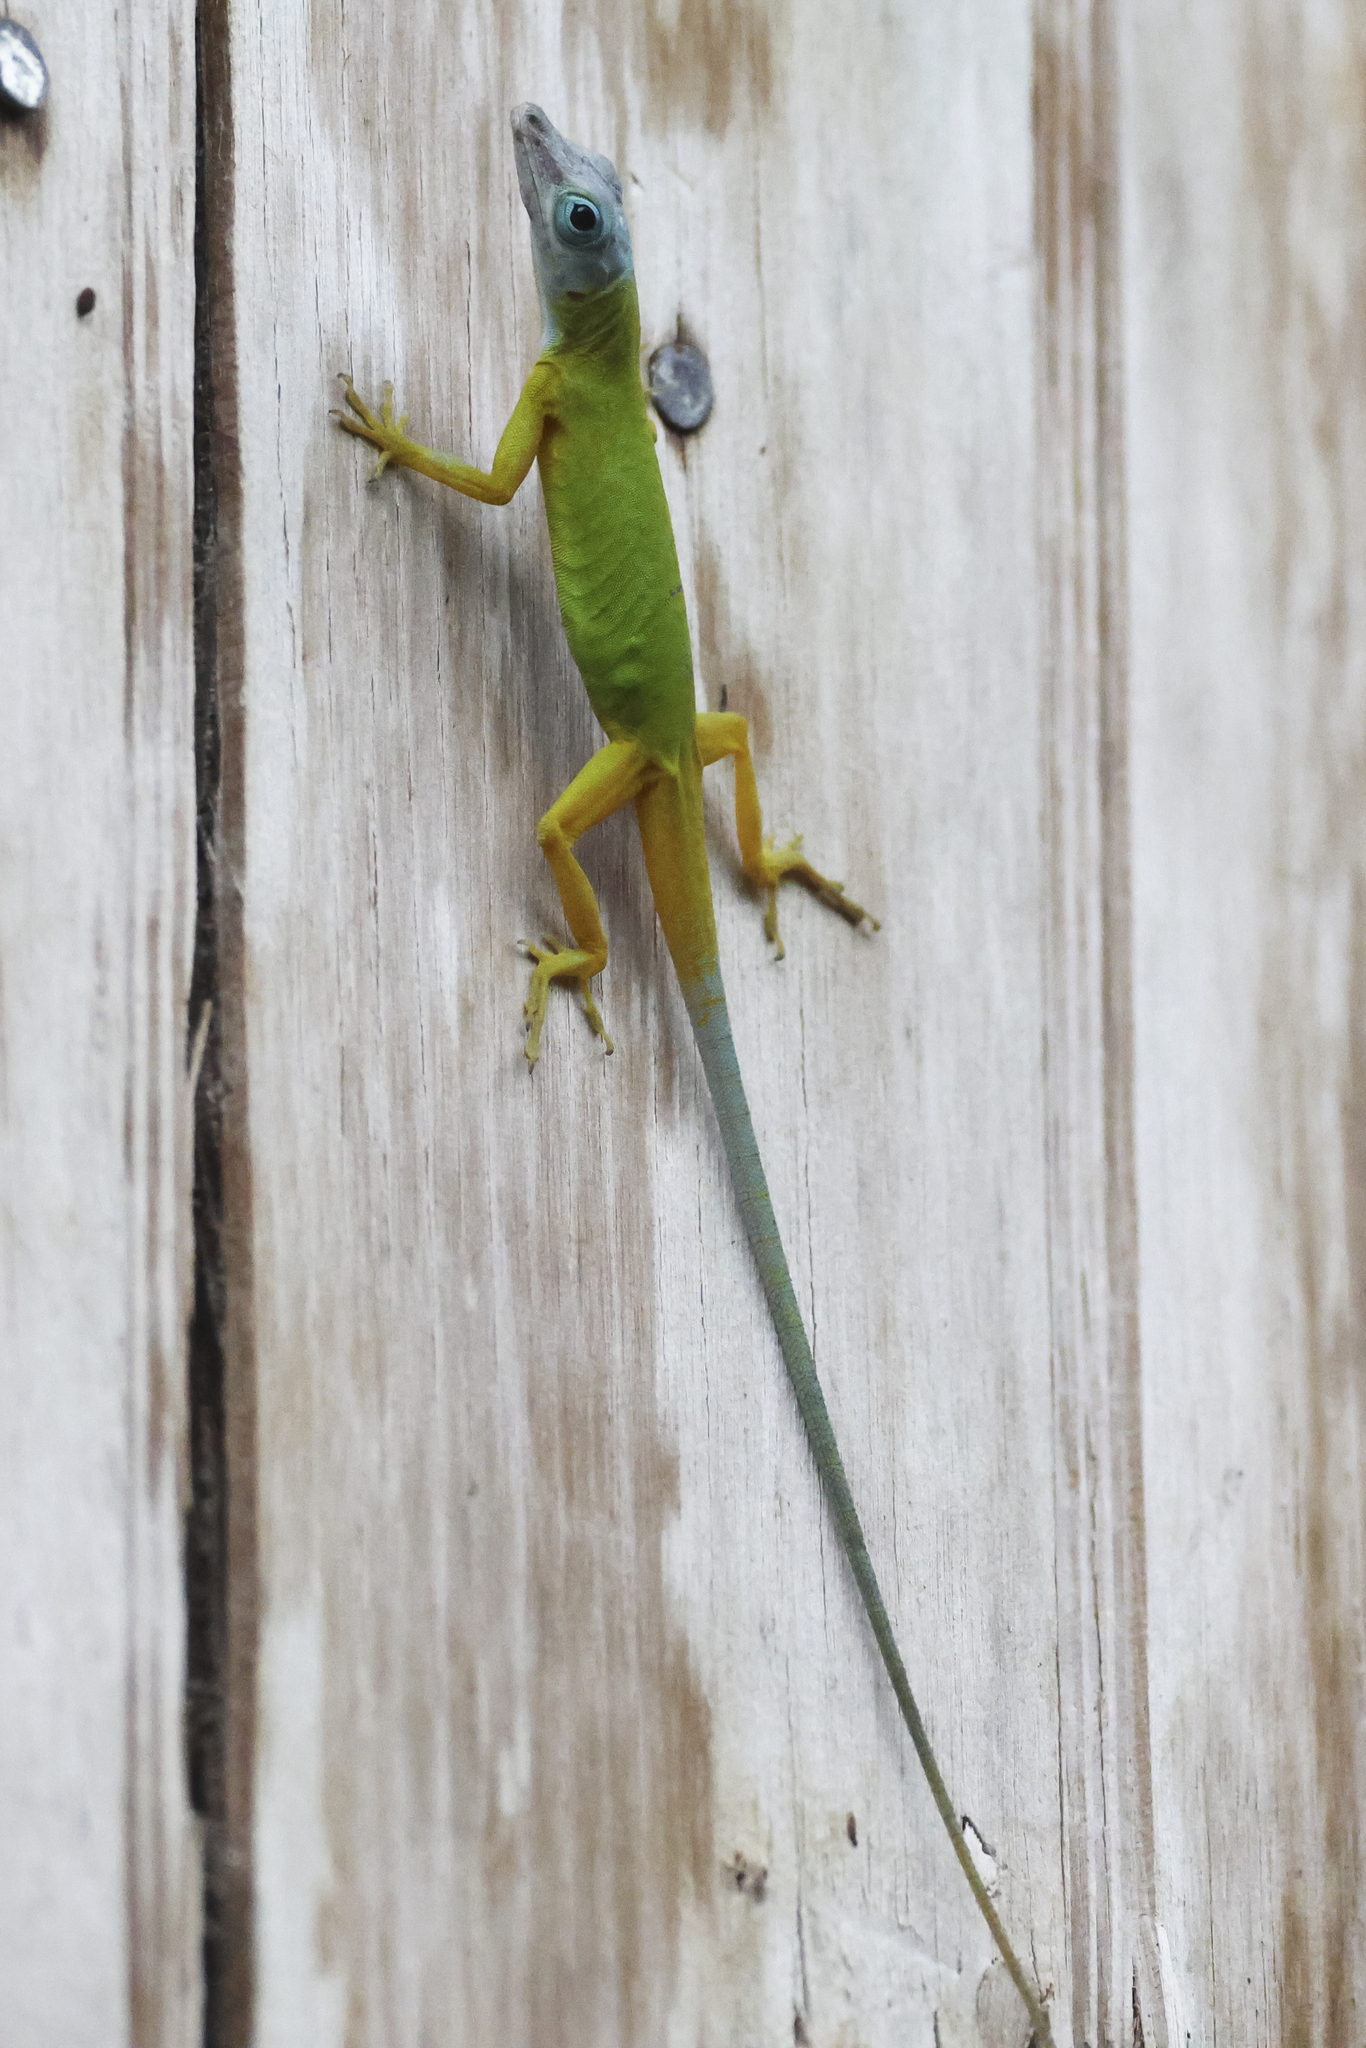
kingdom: Animalia
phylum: Chordata
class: Squamata
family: Dactyloidae
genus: Anolis
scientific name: Anolis trinitatis
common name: Saint vincent's bush anole
